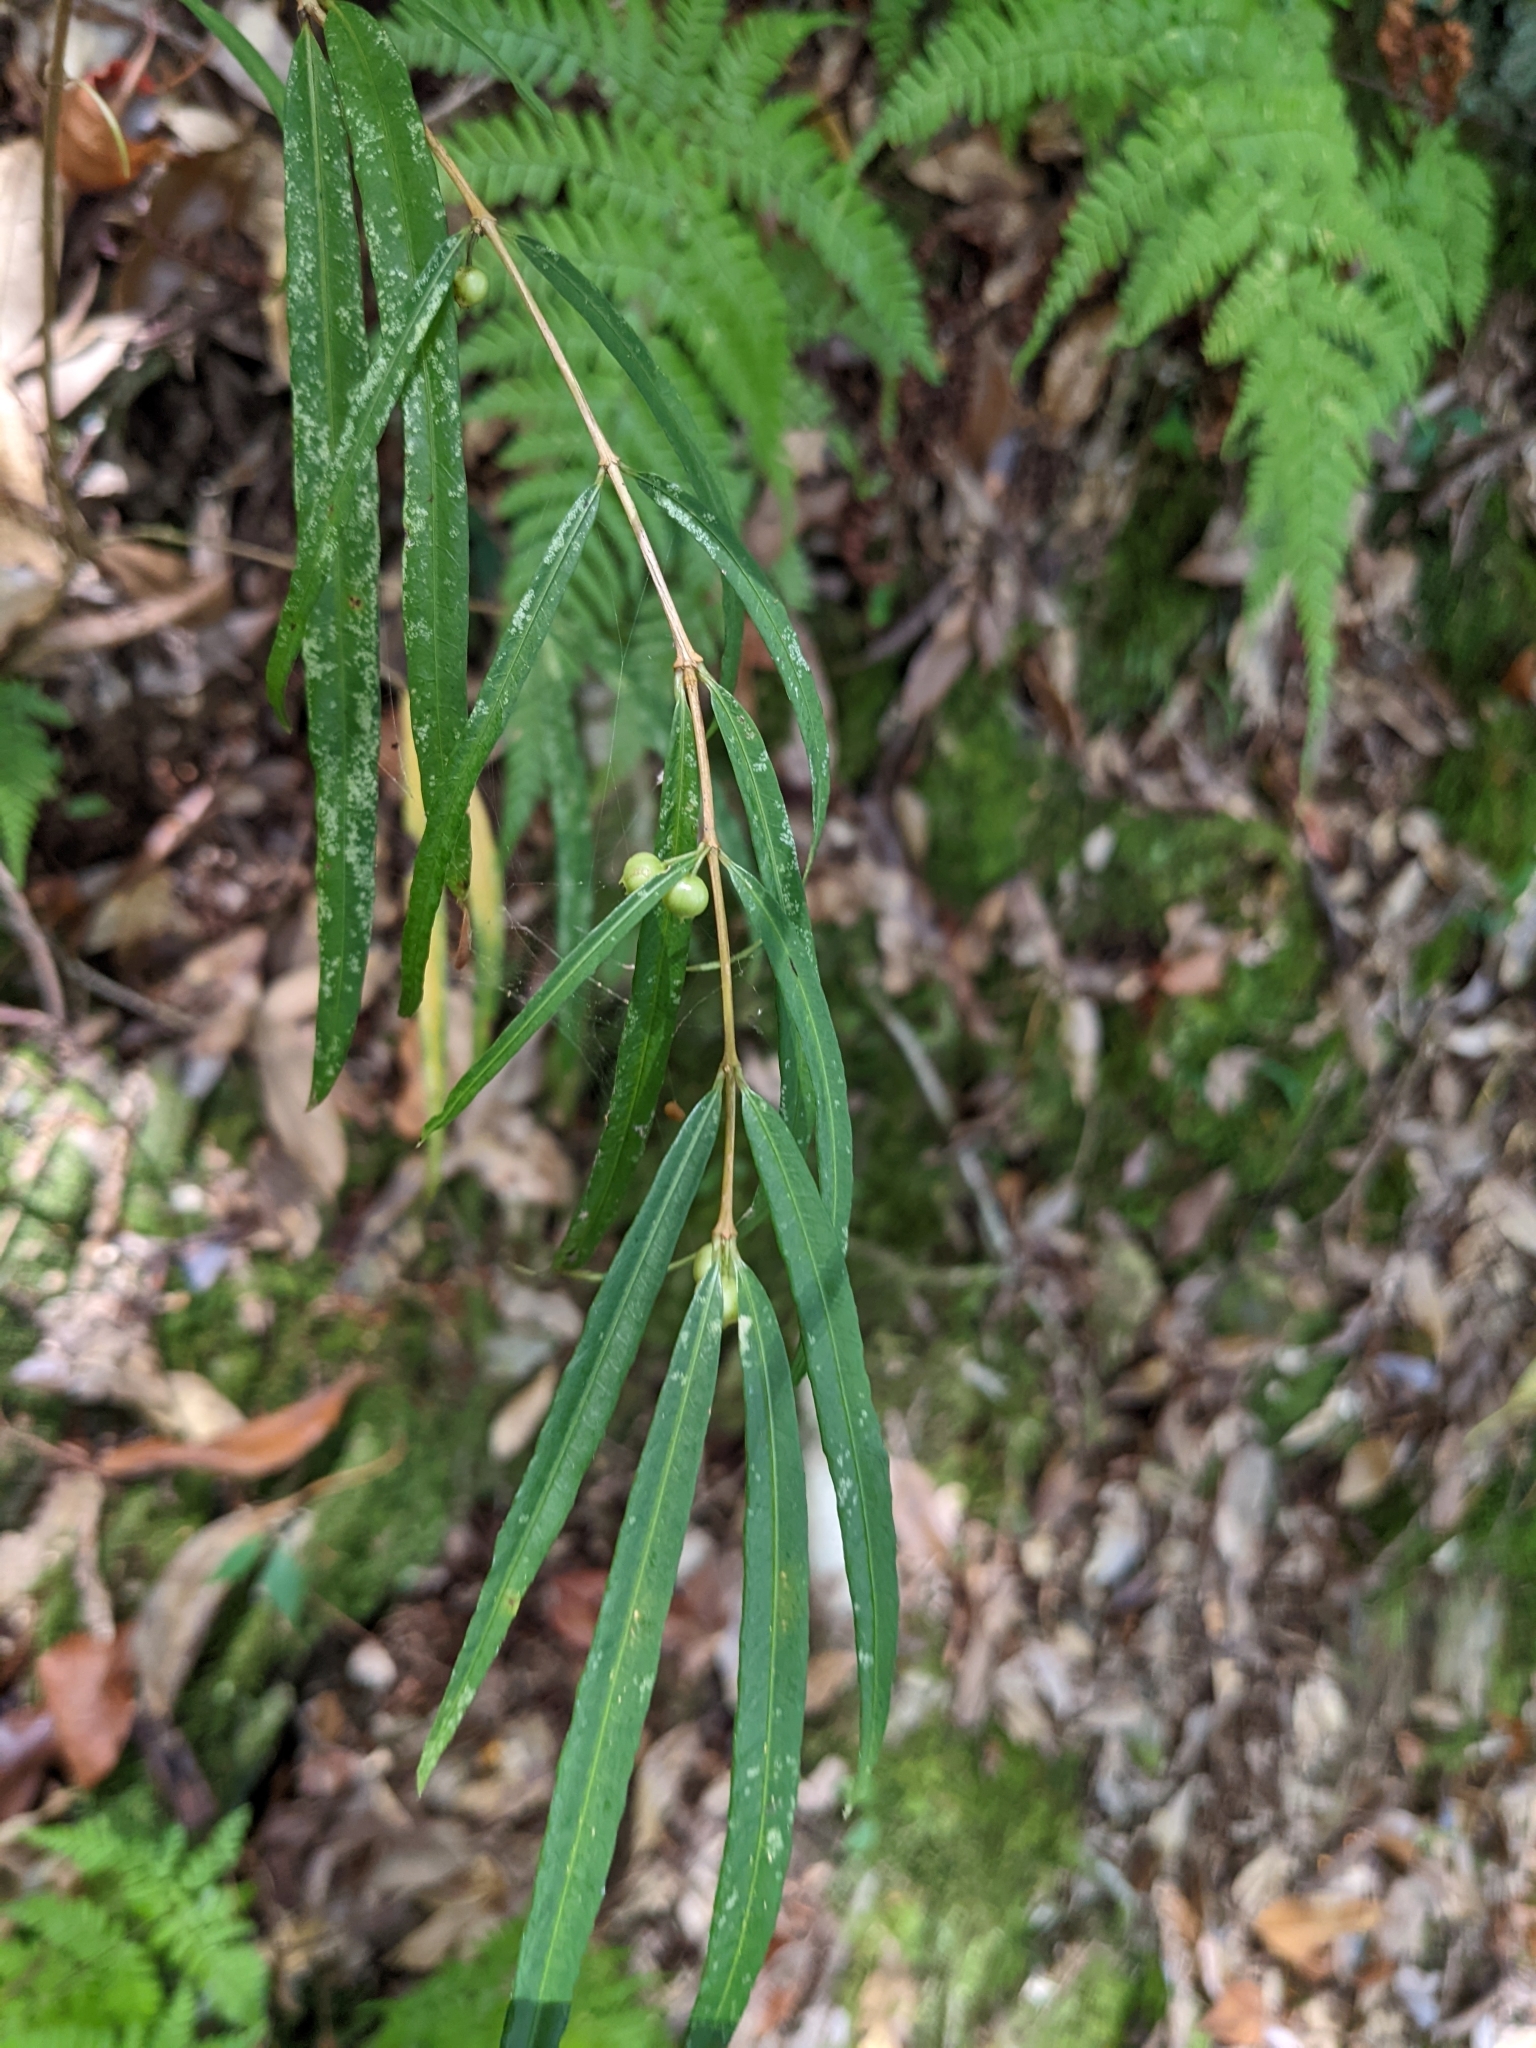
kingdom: Plantae
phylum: Tracheophyta
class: Magnoliopsida
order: Gentianales
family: Rubiaceae
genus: Damnacanthus
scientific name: Damnacanthus angustifolius
